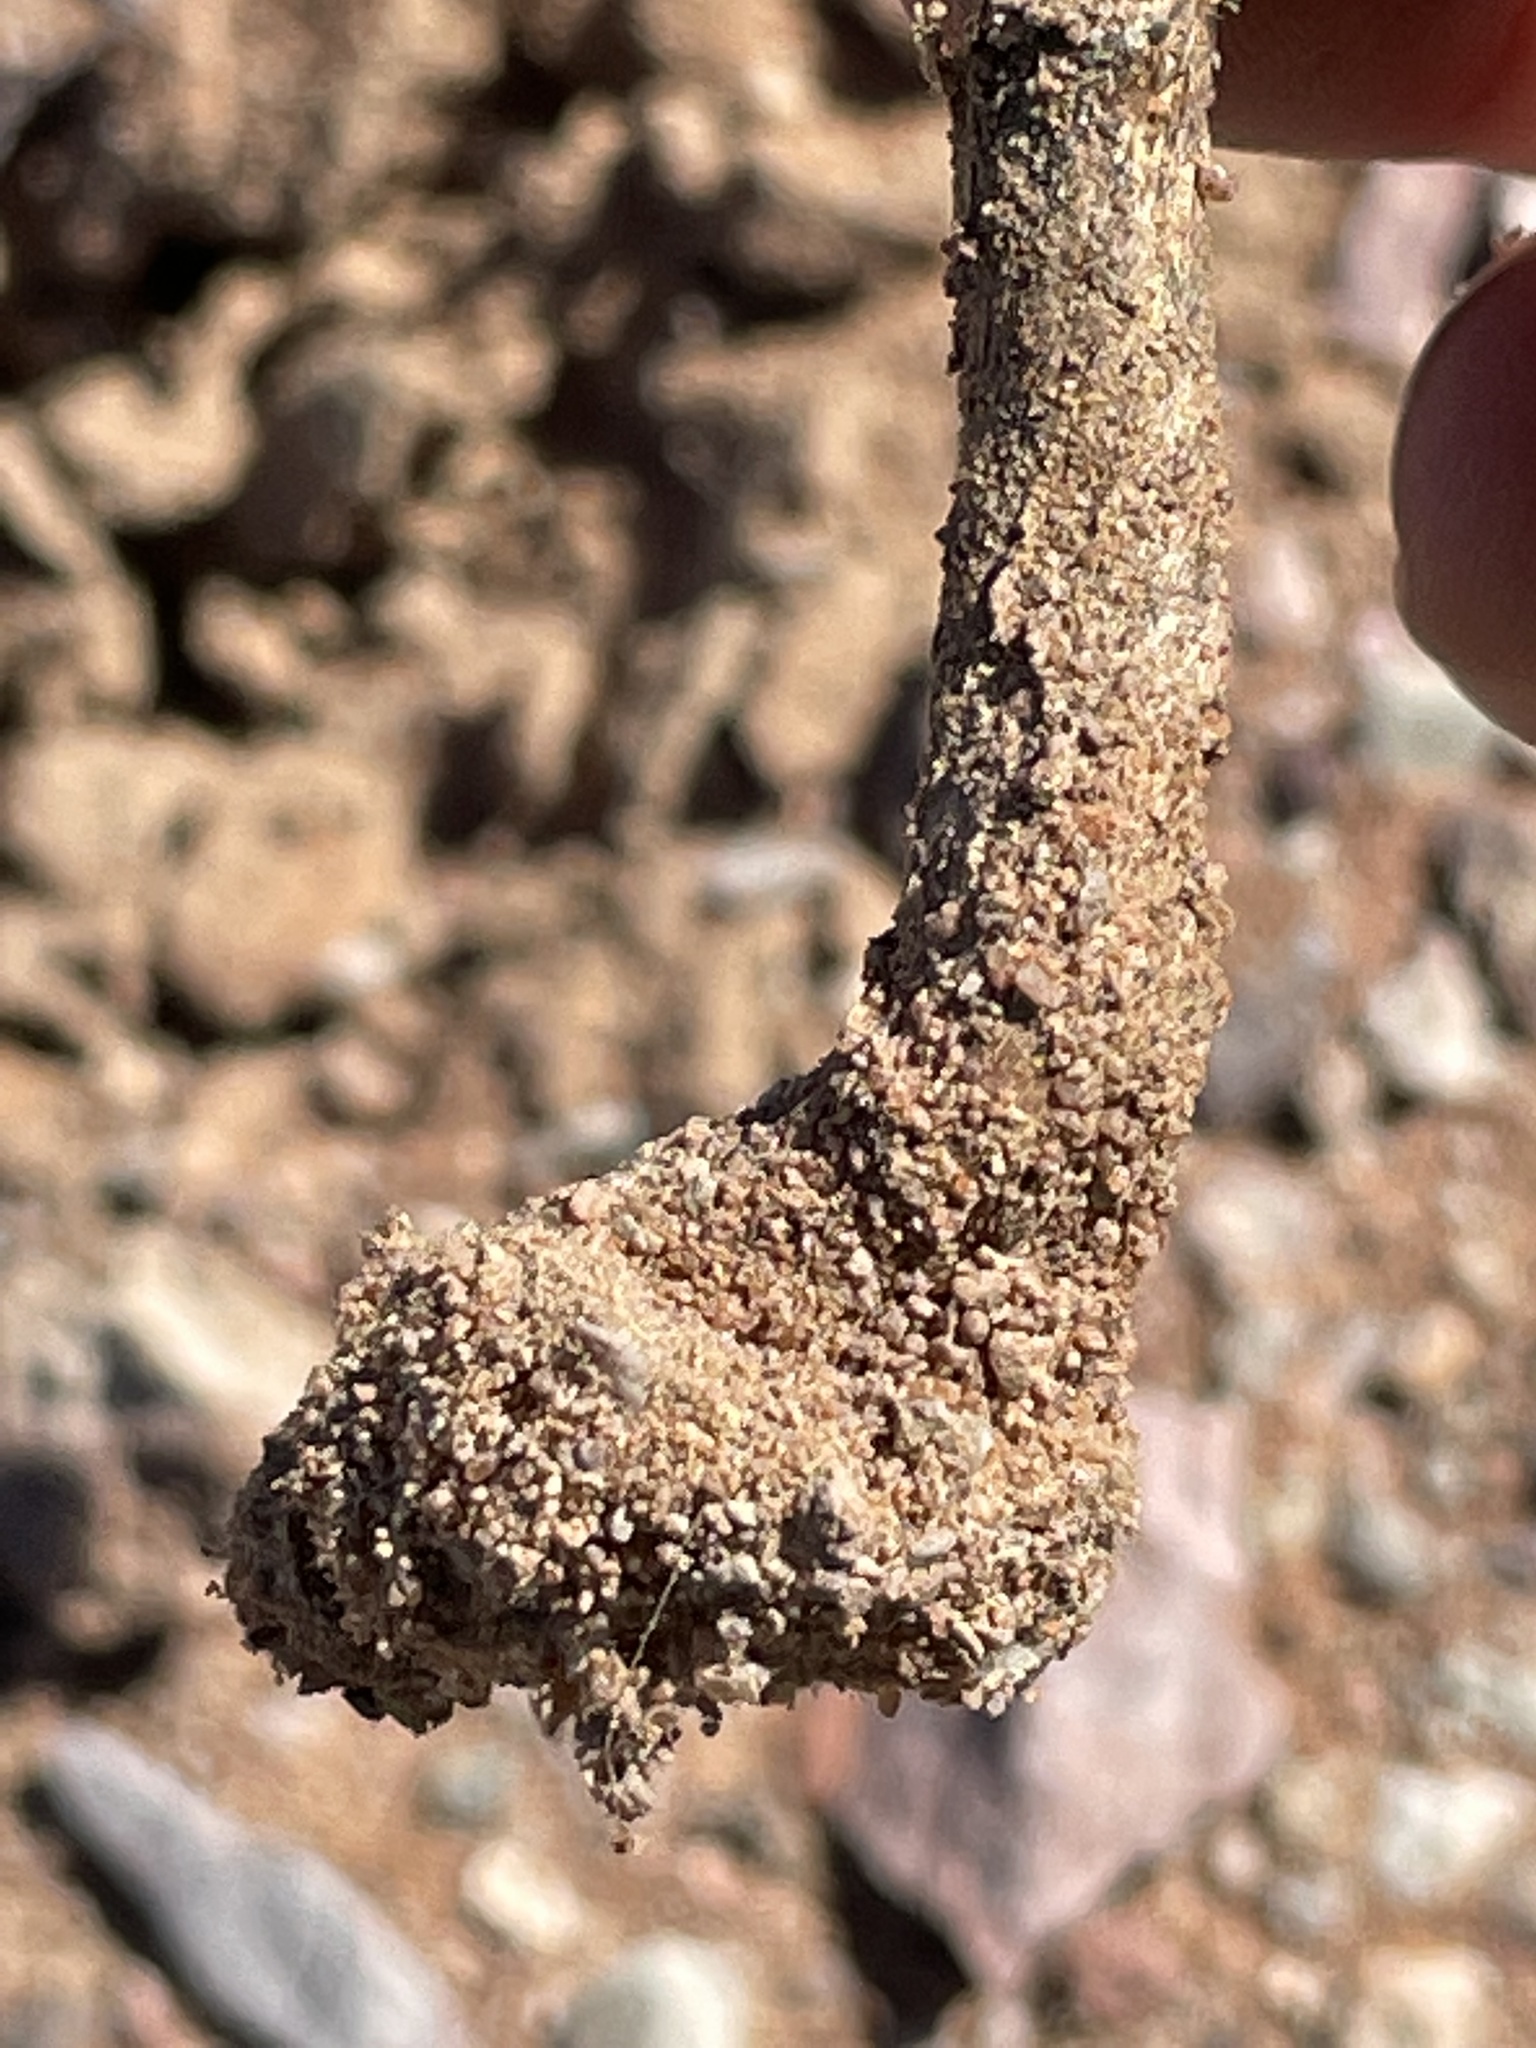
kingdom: Fungi
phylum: Basidiomycota
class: Agaricomycetes
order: Agaricales
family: Agaricaceae
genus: Podaxis
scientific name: Podaxis pistillaris
